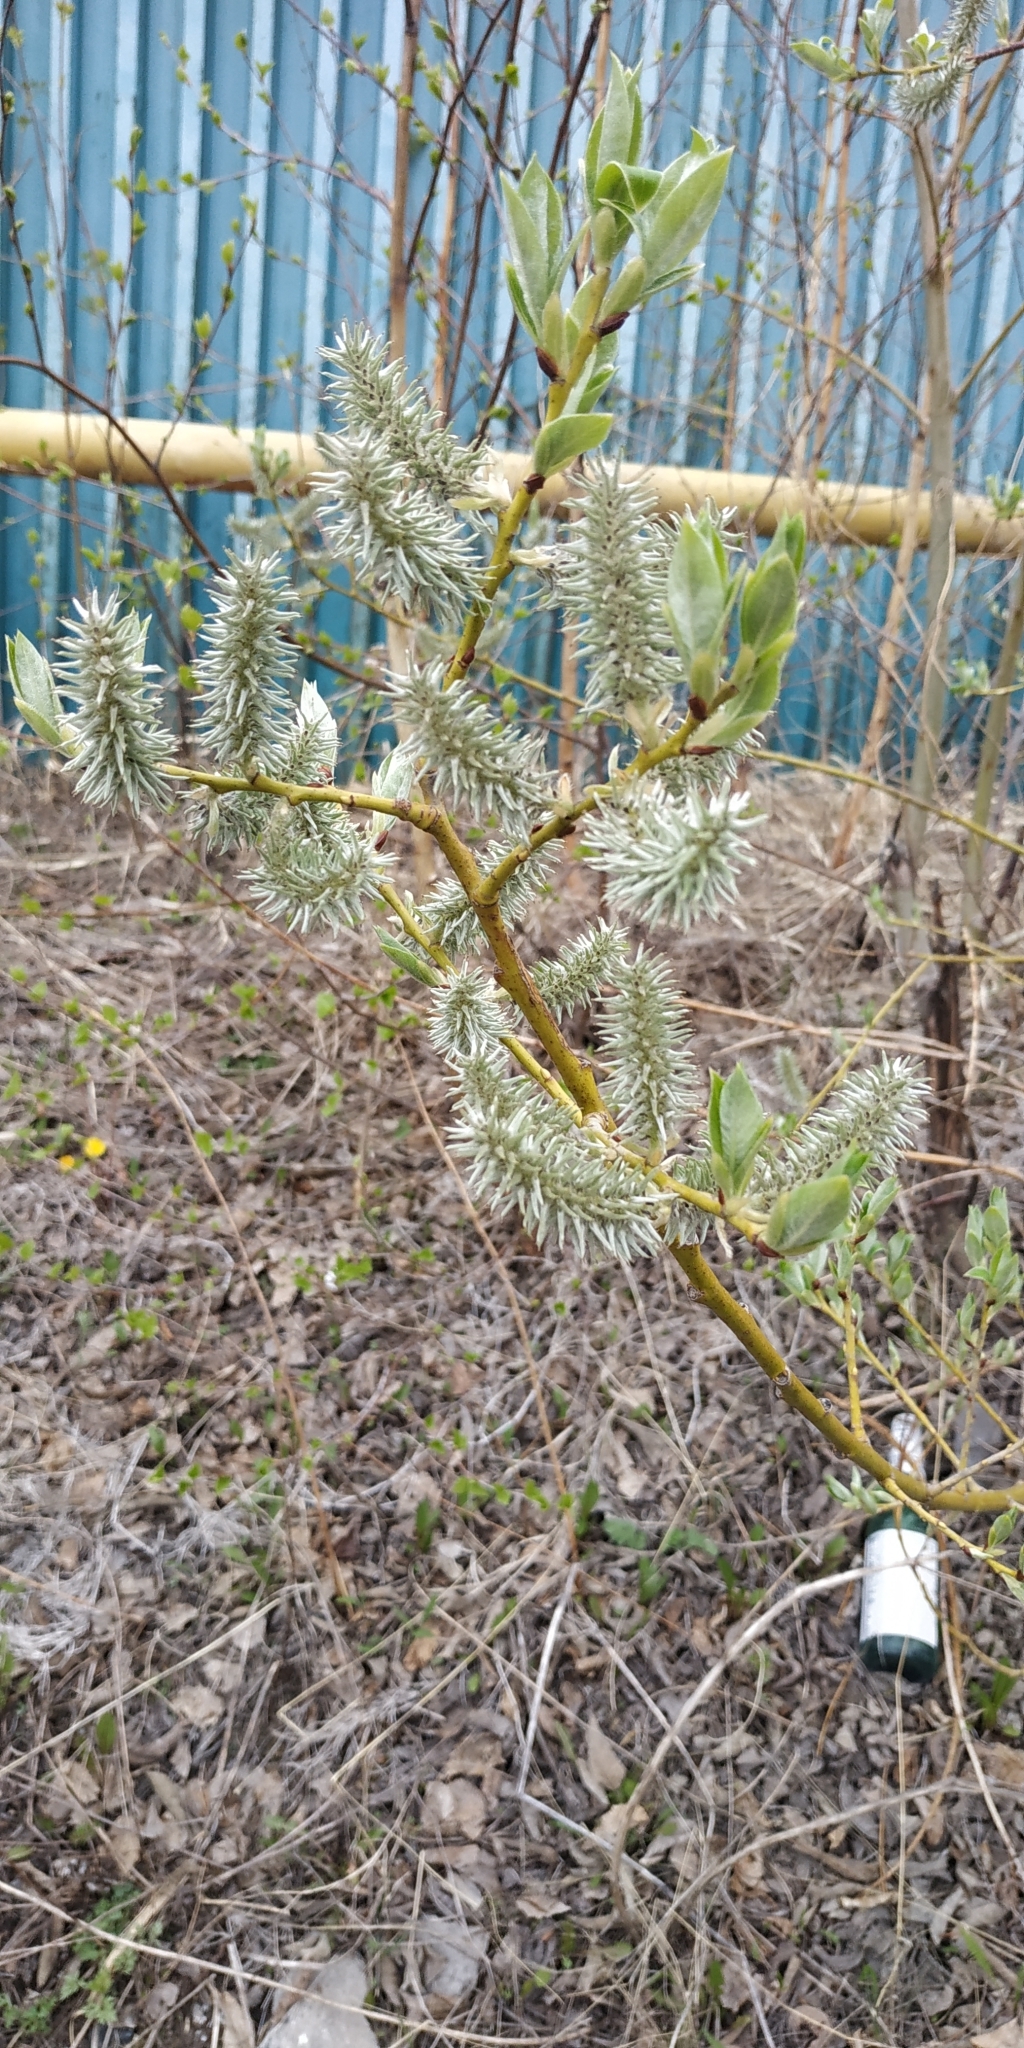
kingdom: Plantae
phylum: Tracheophyta
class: Magnoliopsida
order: Malpighiales
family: Salicaceae
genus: Salix
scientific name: Salix cinerea
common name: Common sallow
